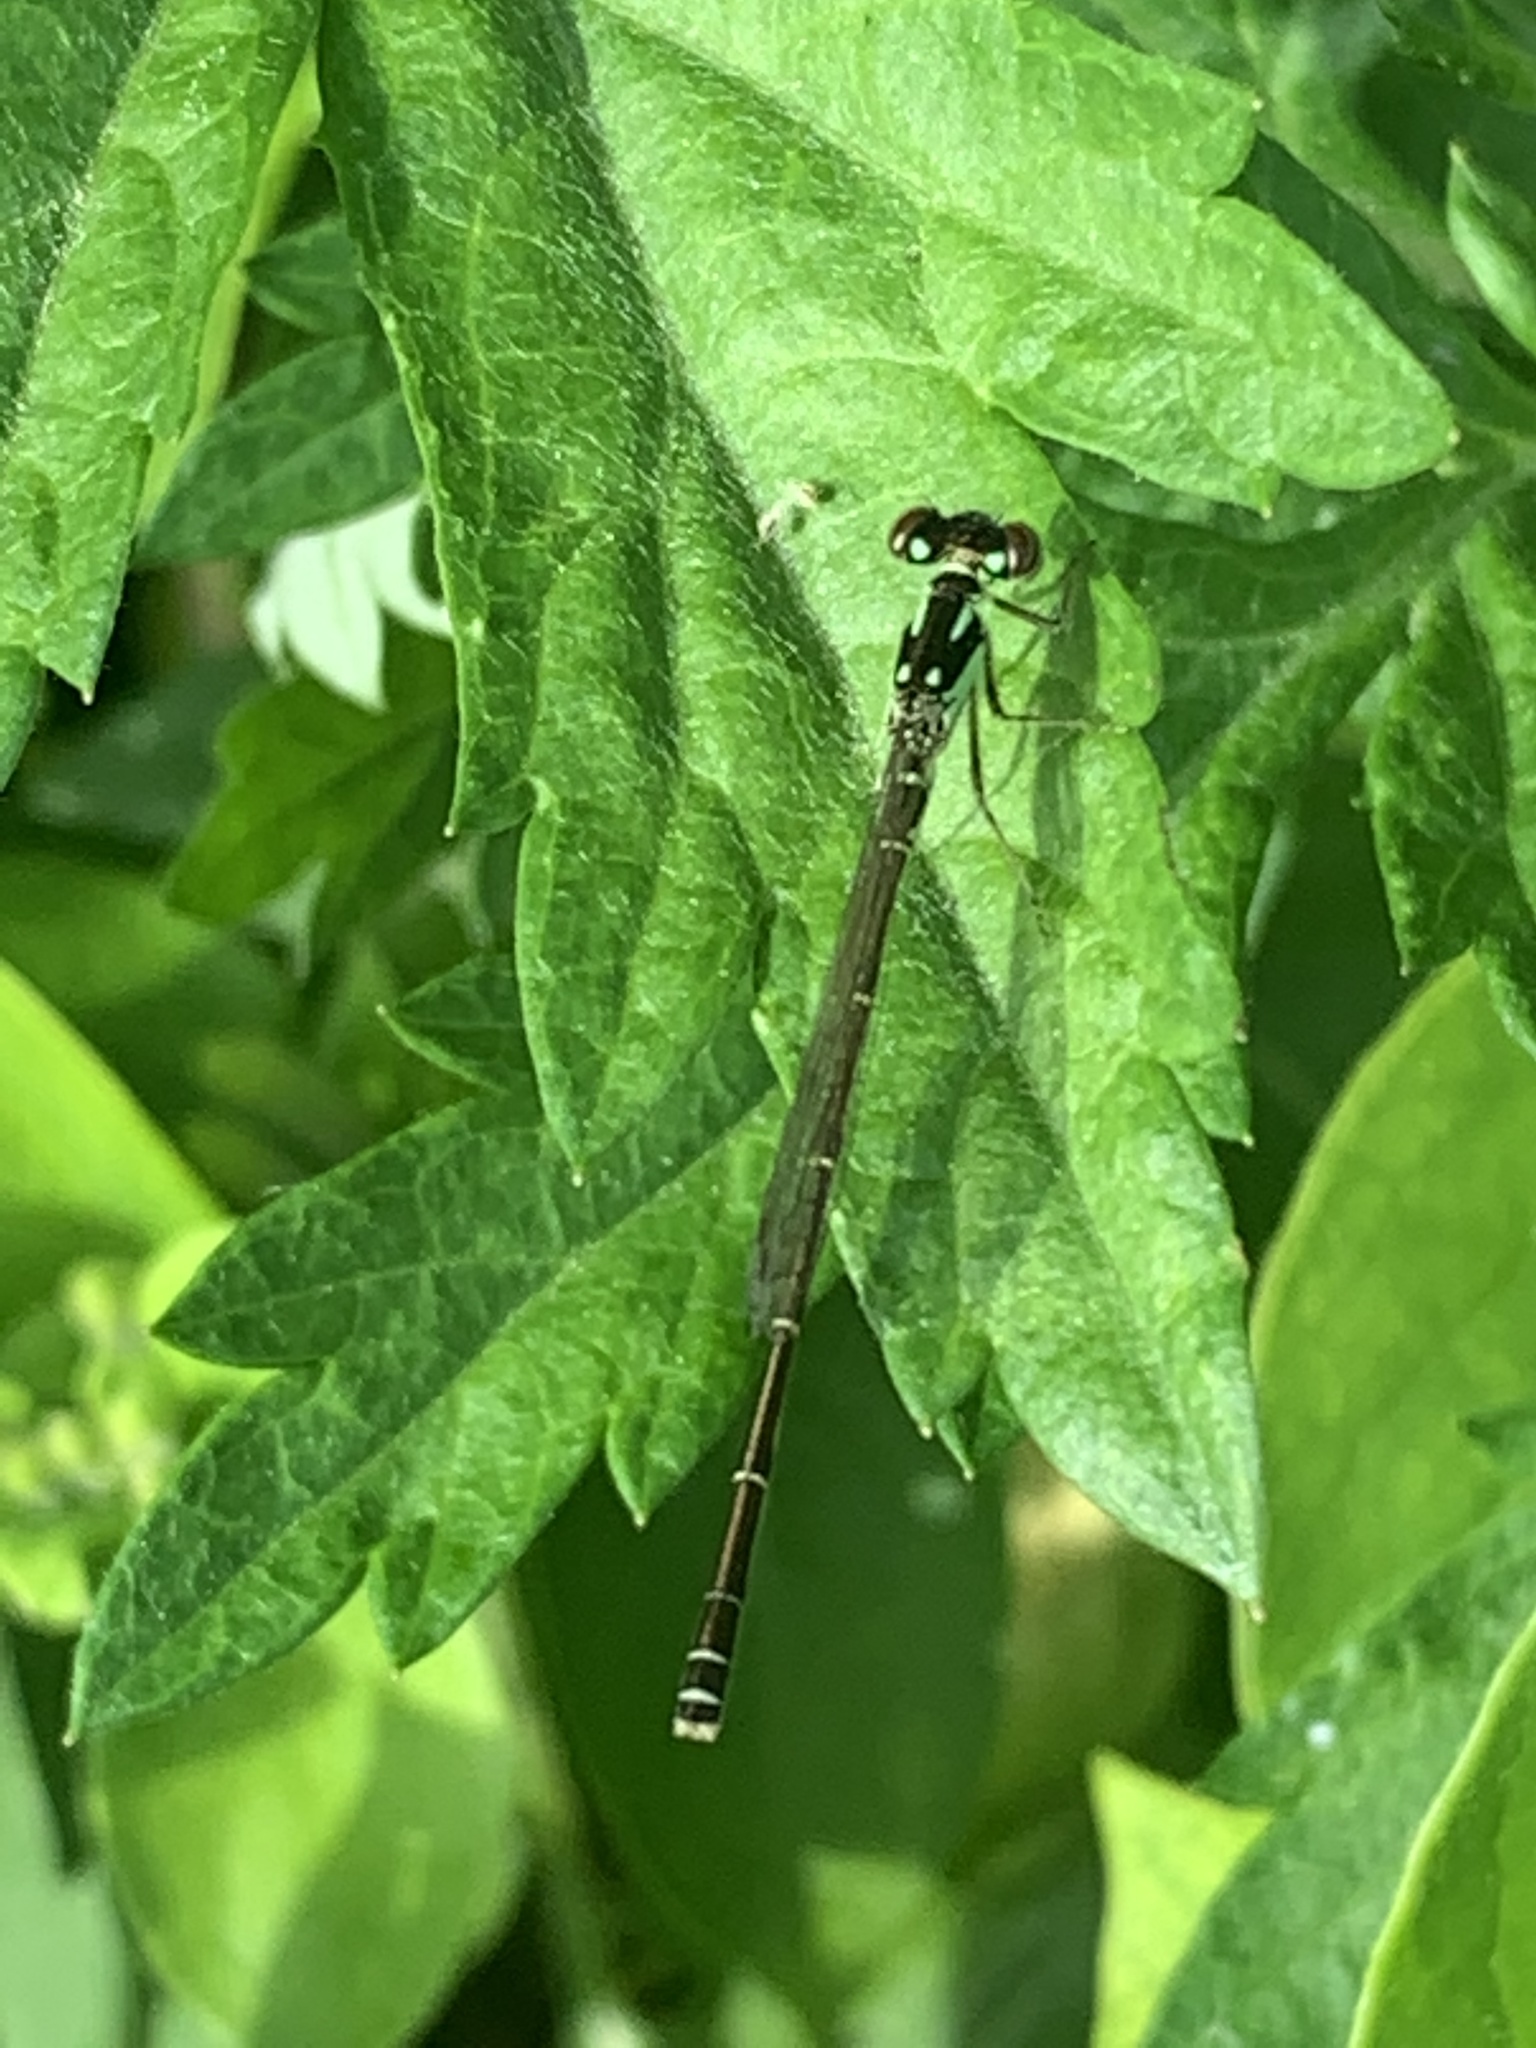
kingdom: Animalia
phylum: Arthropoda
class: Insecta
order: Odonata
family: Coenagrionidae
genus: Ischnura
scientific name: Ischnura posita
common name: Fragile forktail
